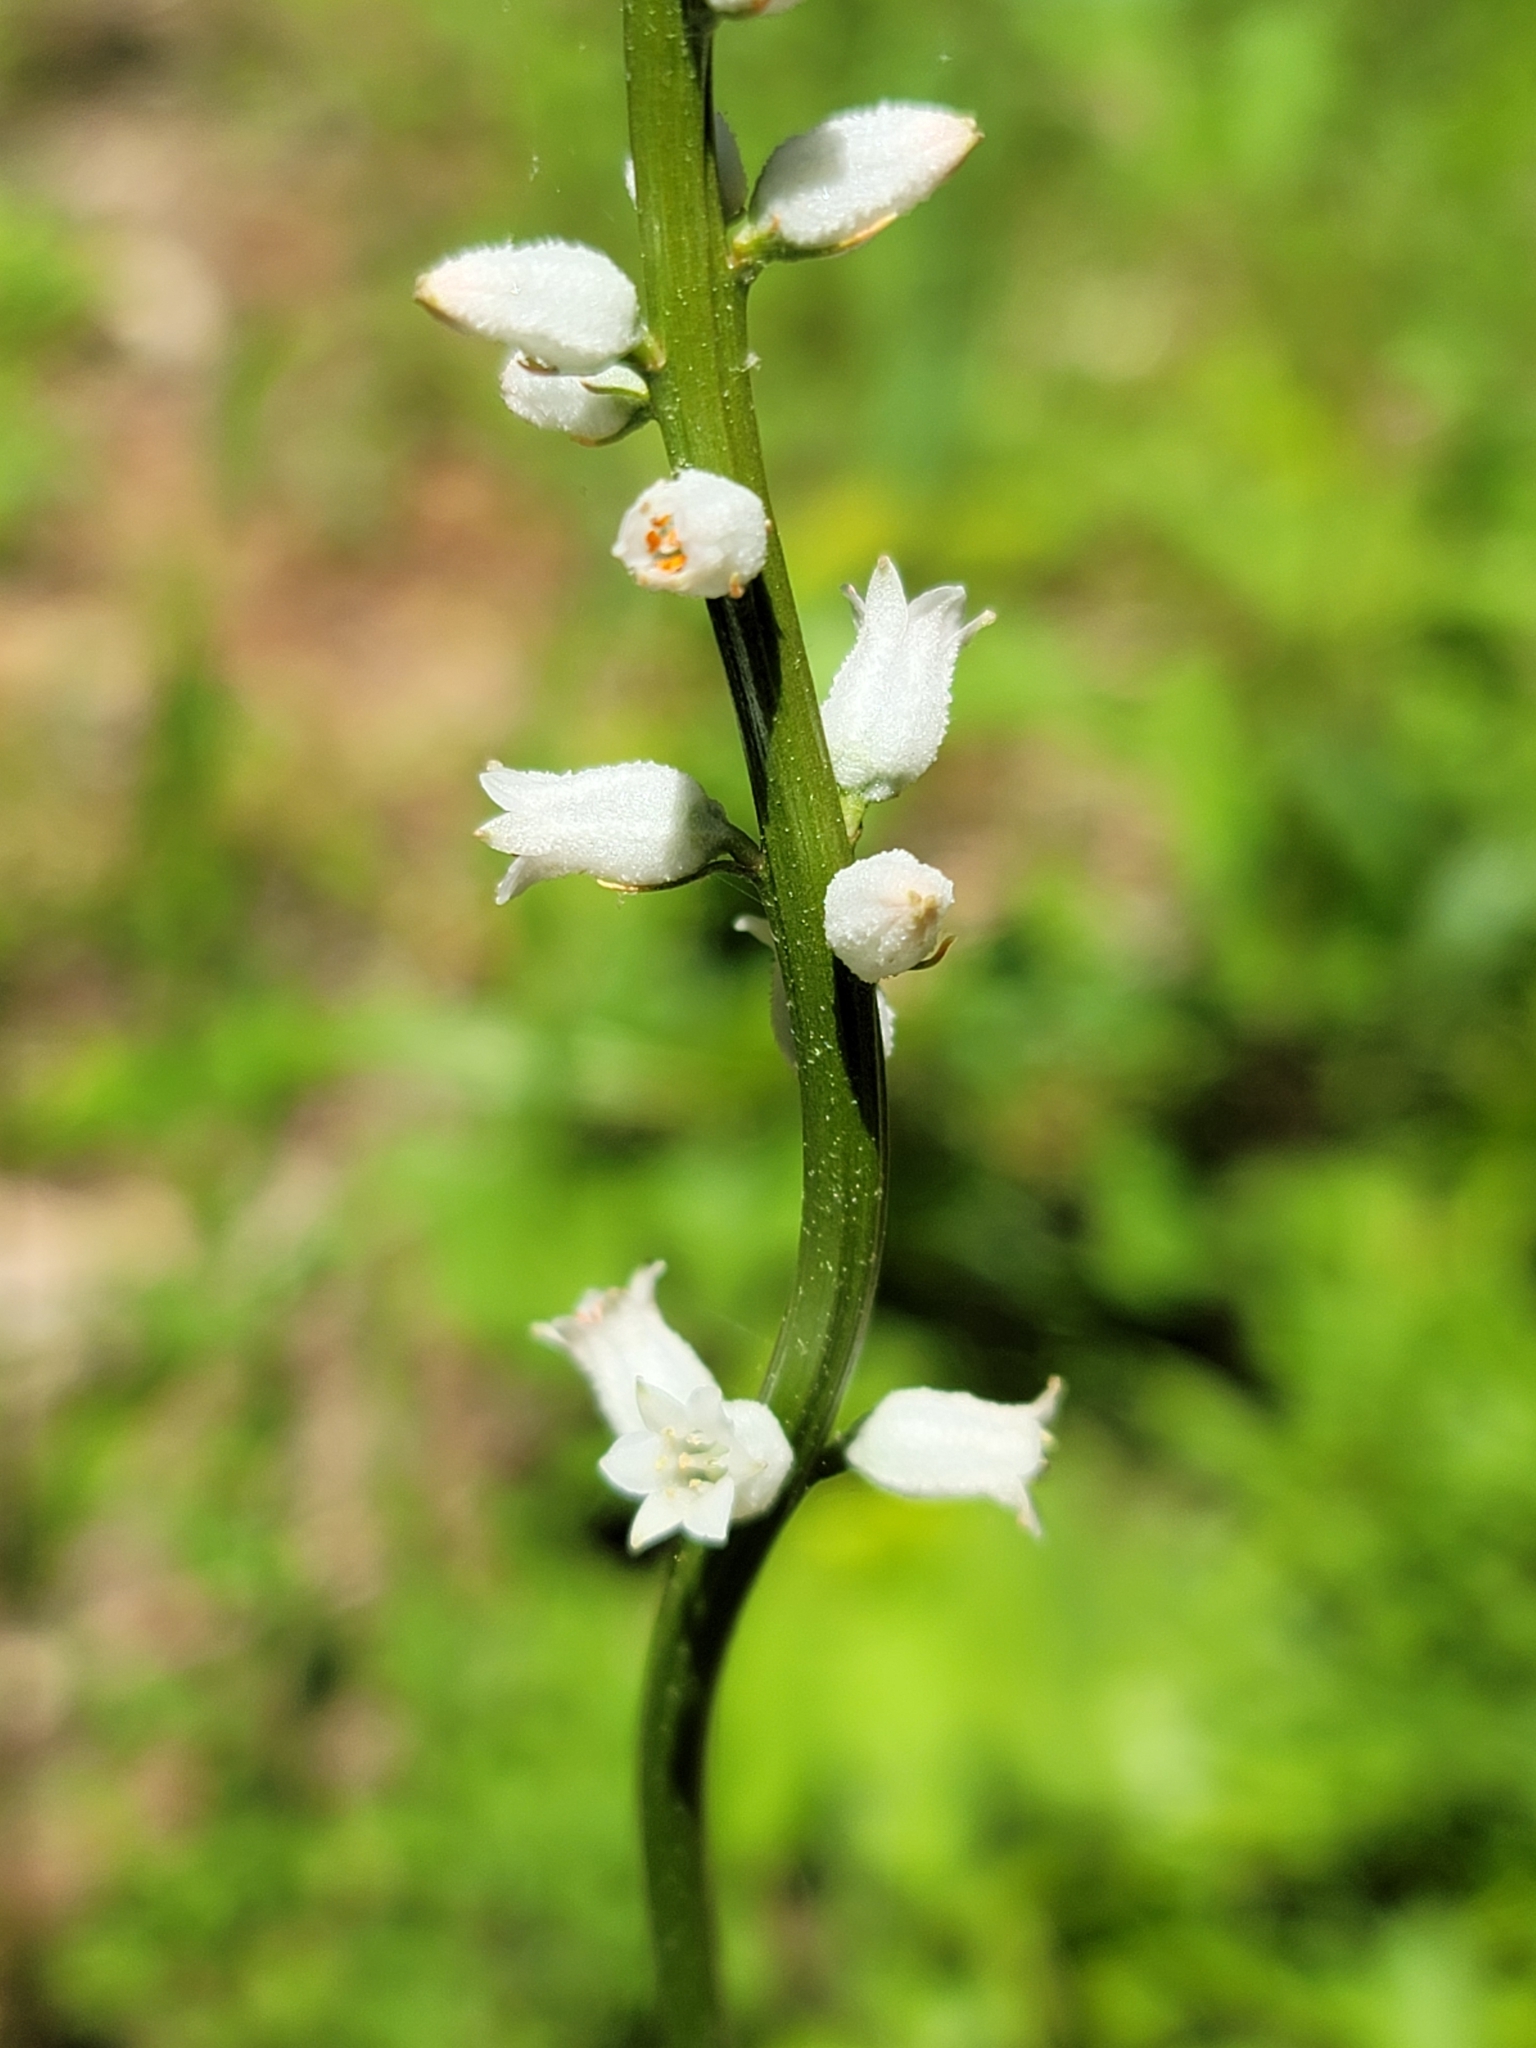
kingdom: Plantae
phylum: Tracheophyta
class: Liliopsida
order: Dioscoreales
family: Nartheciaceae
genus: Aletris
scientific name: Aletris farinosa
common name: Colicroot
